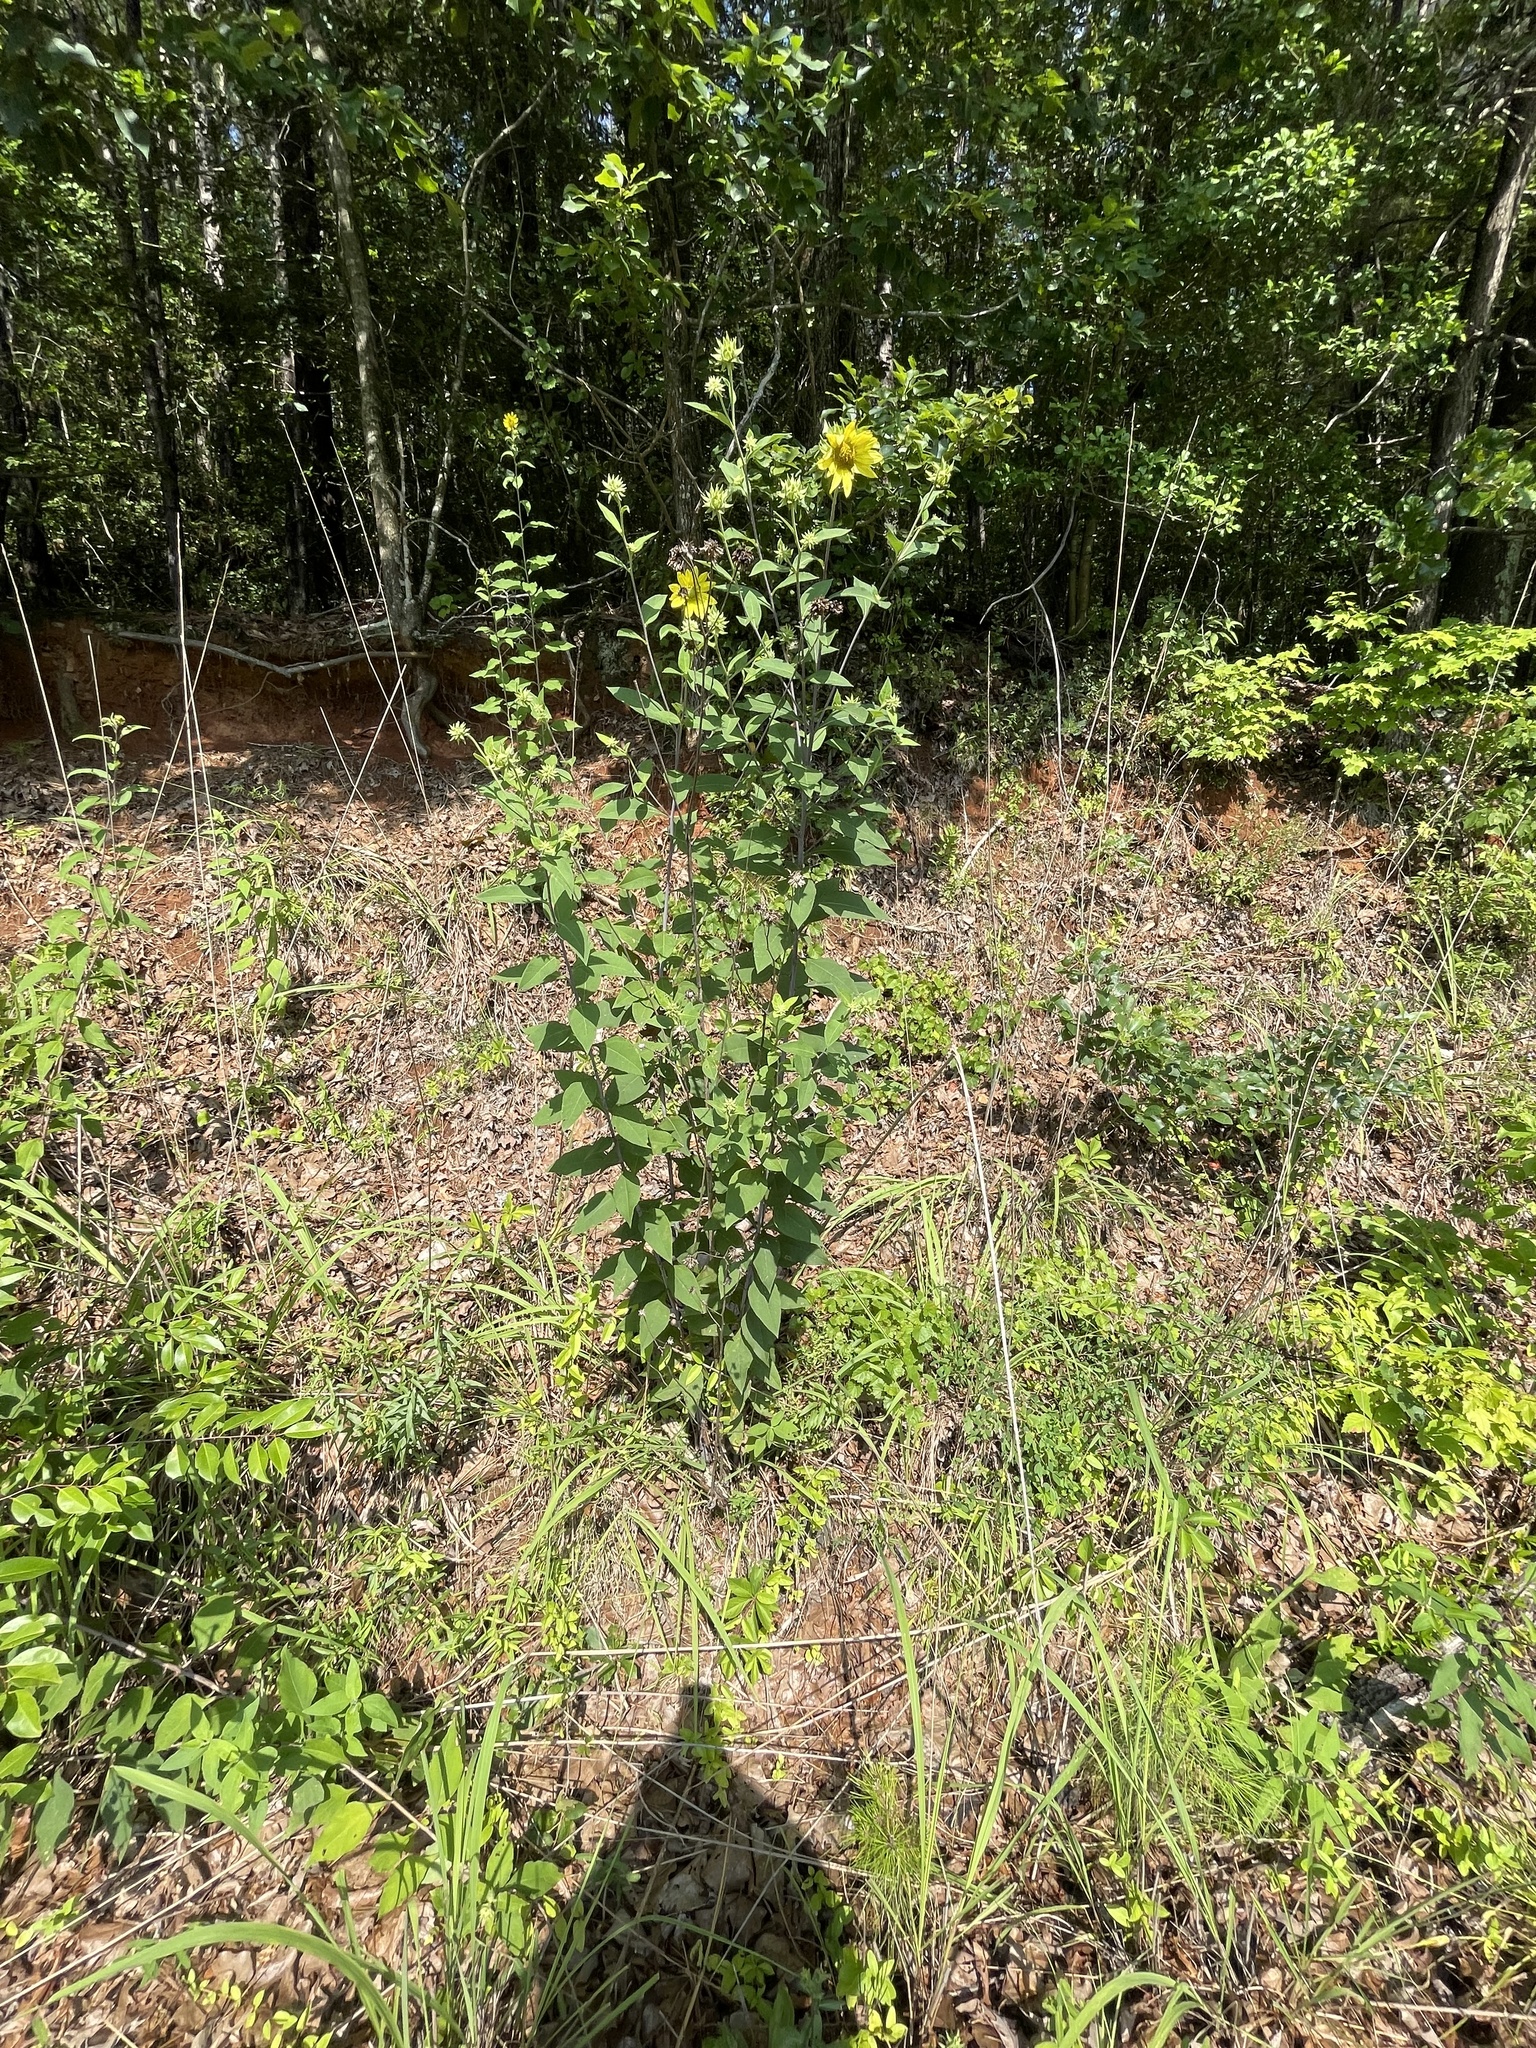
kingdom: Plantae
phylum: Tracheophyta
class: Magnoliopsida
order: Asterales
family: Asteraceae
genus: Helianthus
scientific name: Helianthus resinosus
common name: Resin-dot sunflower
